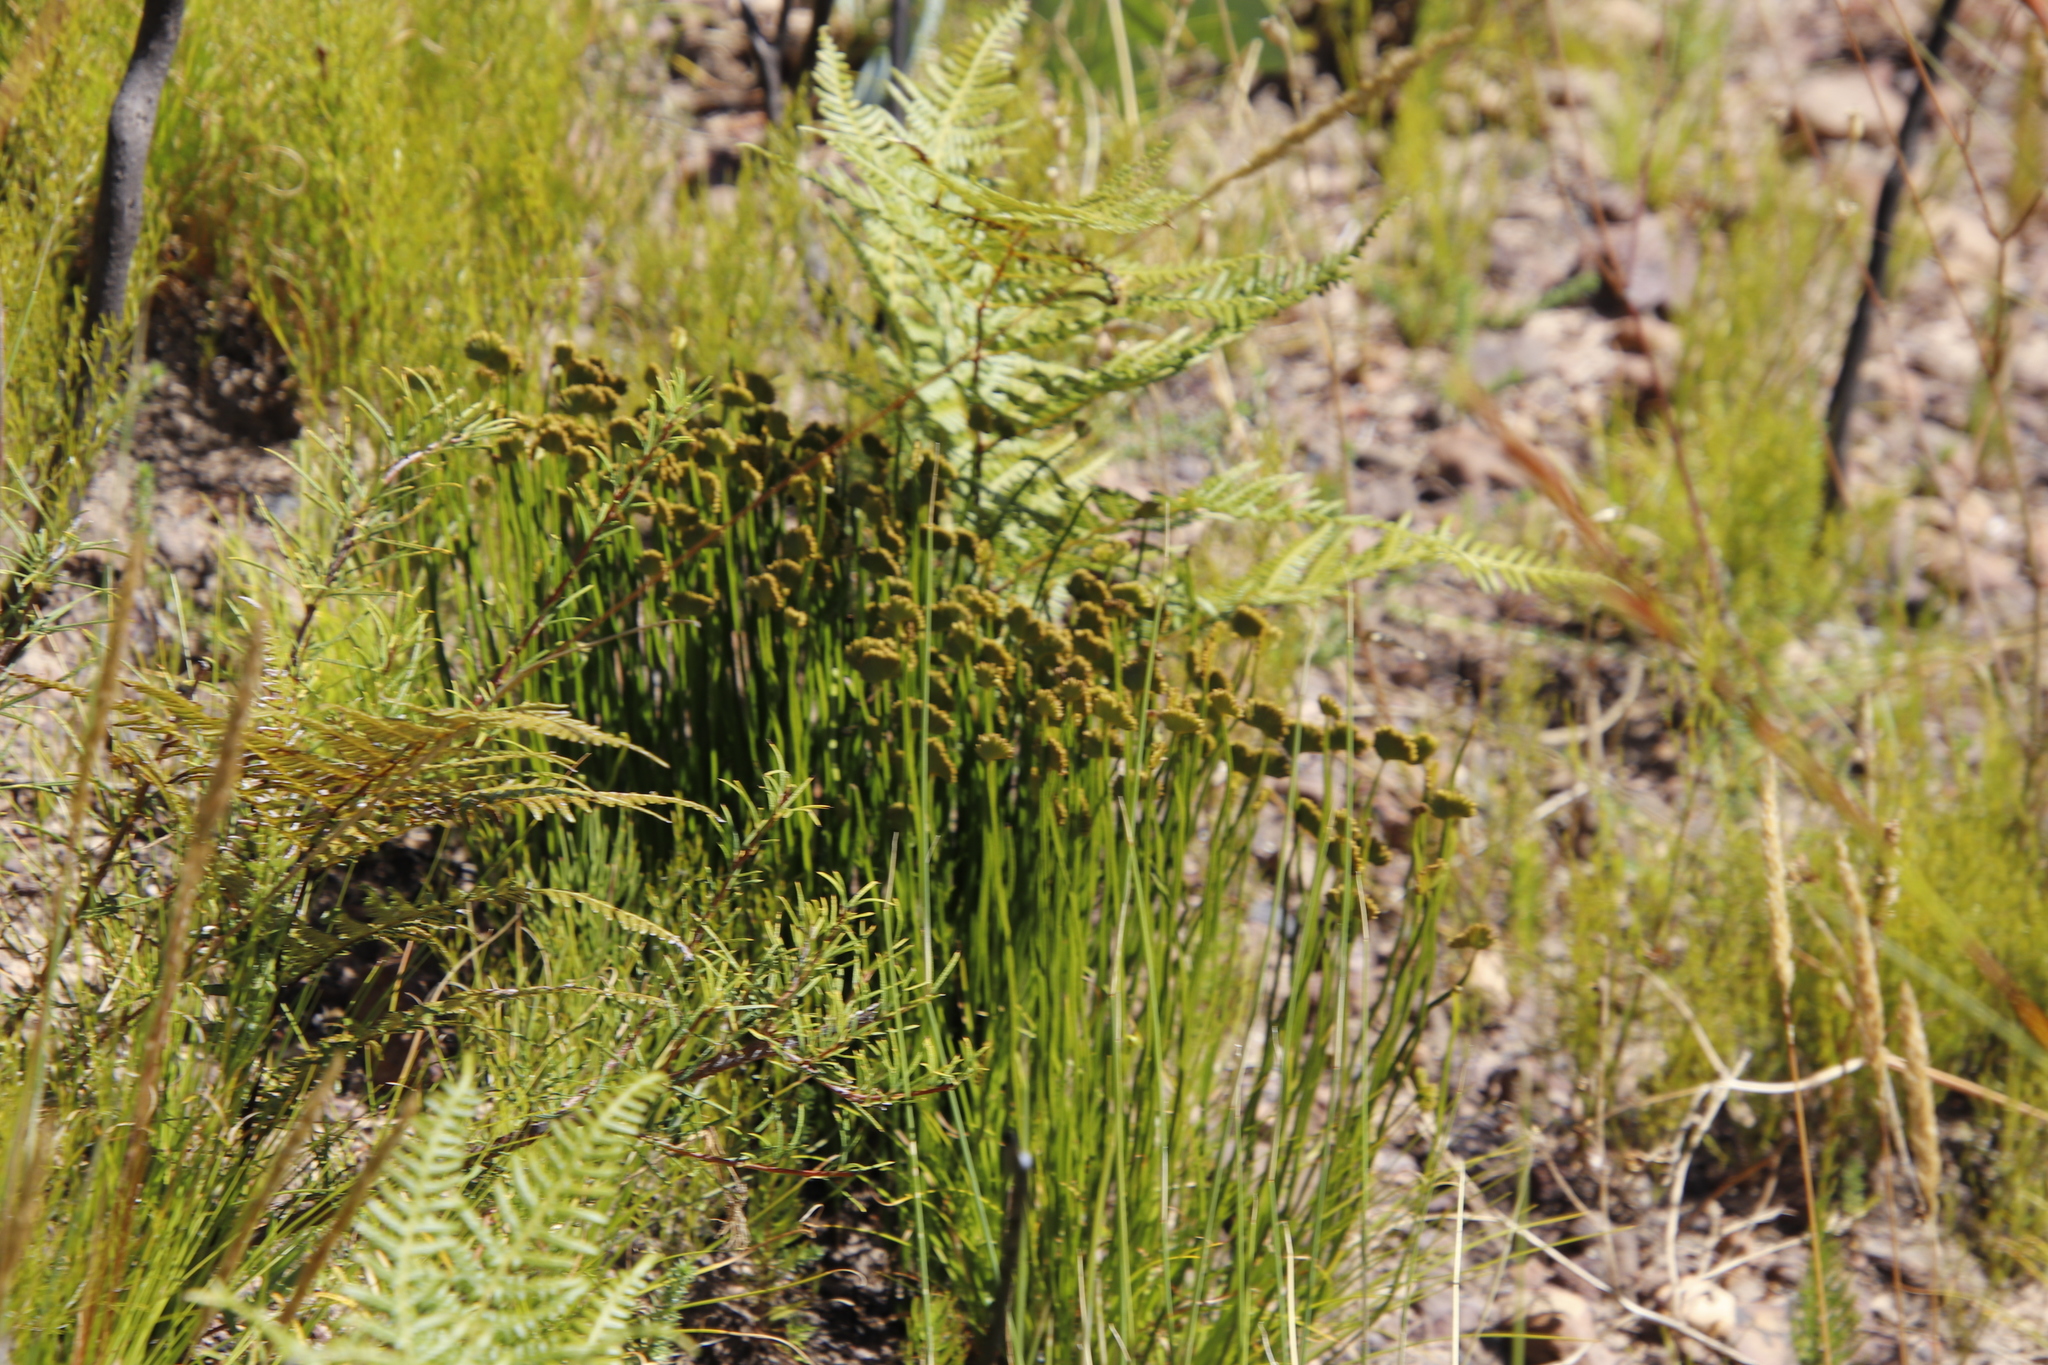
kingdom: Plantae
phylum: Tracheophyta
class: Polypodiopsida
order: Schizaeales
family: Schizaeaceae
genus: Schizaea
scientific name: Schizaea pectinata
